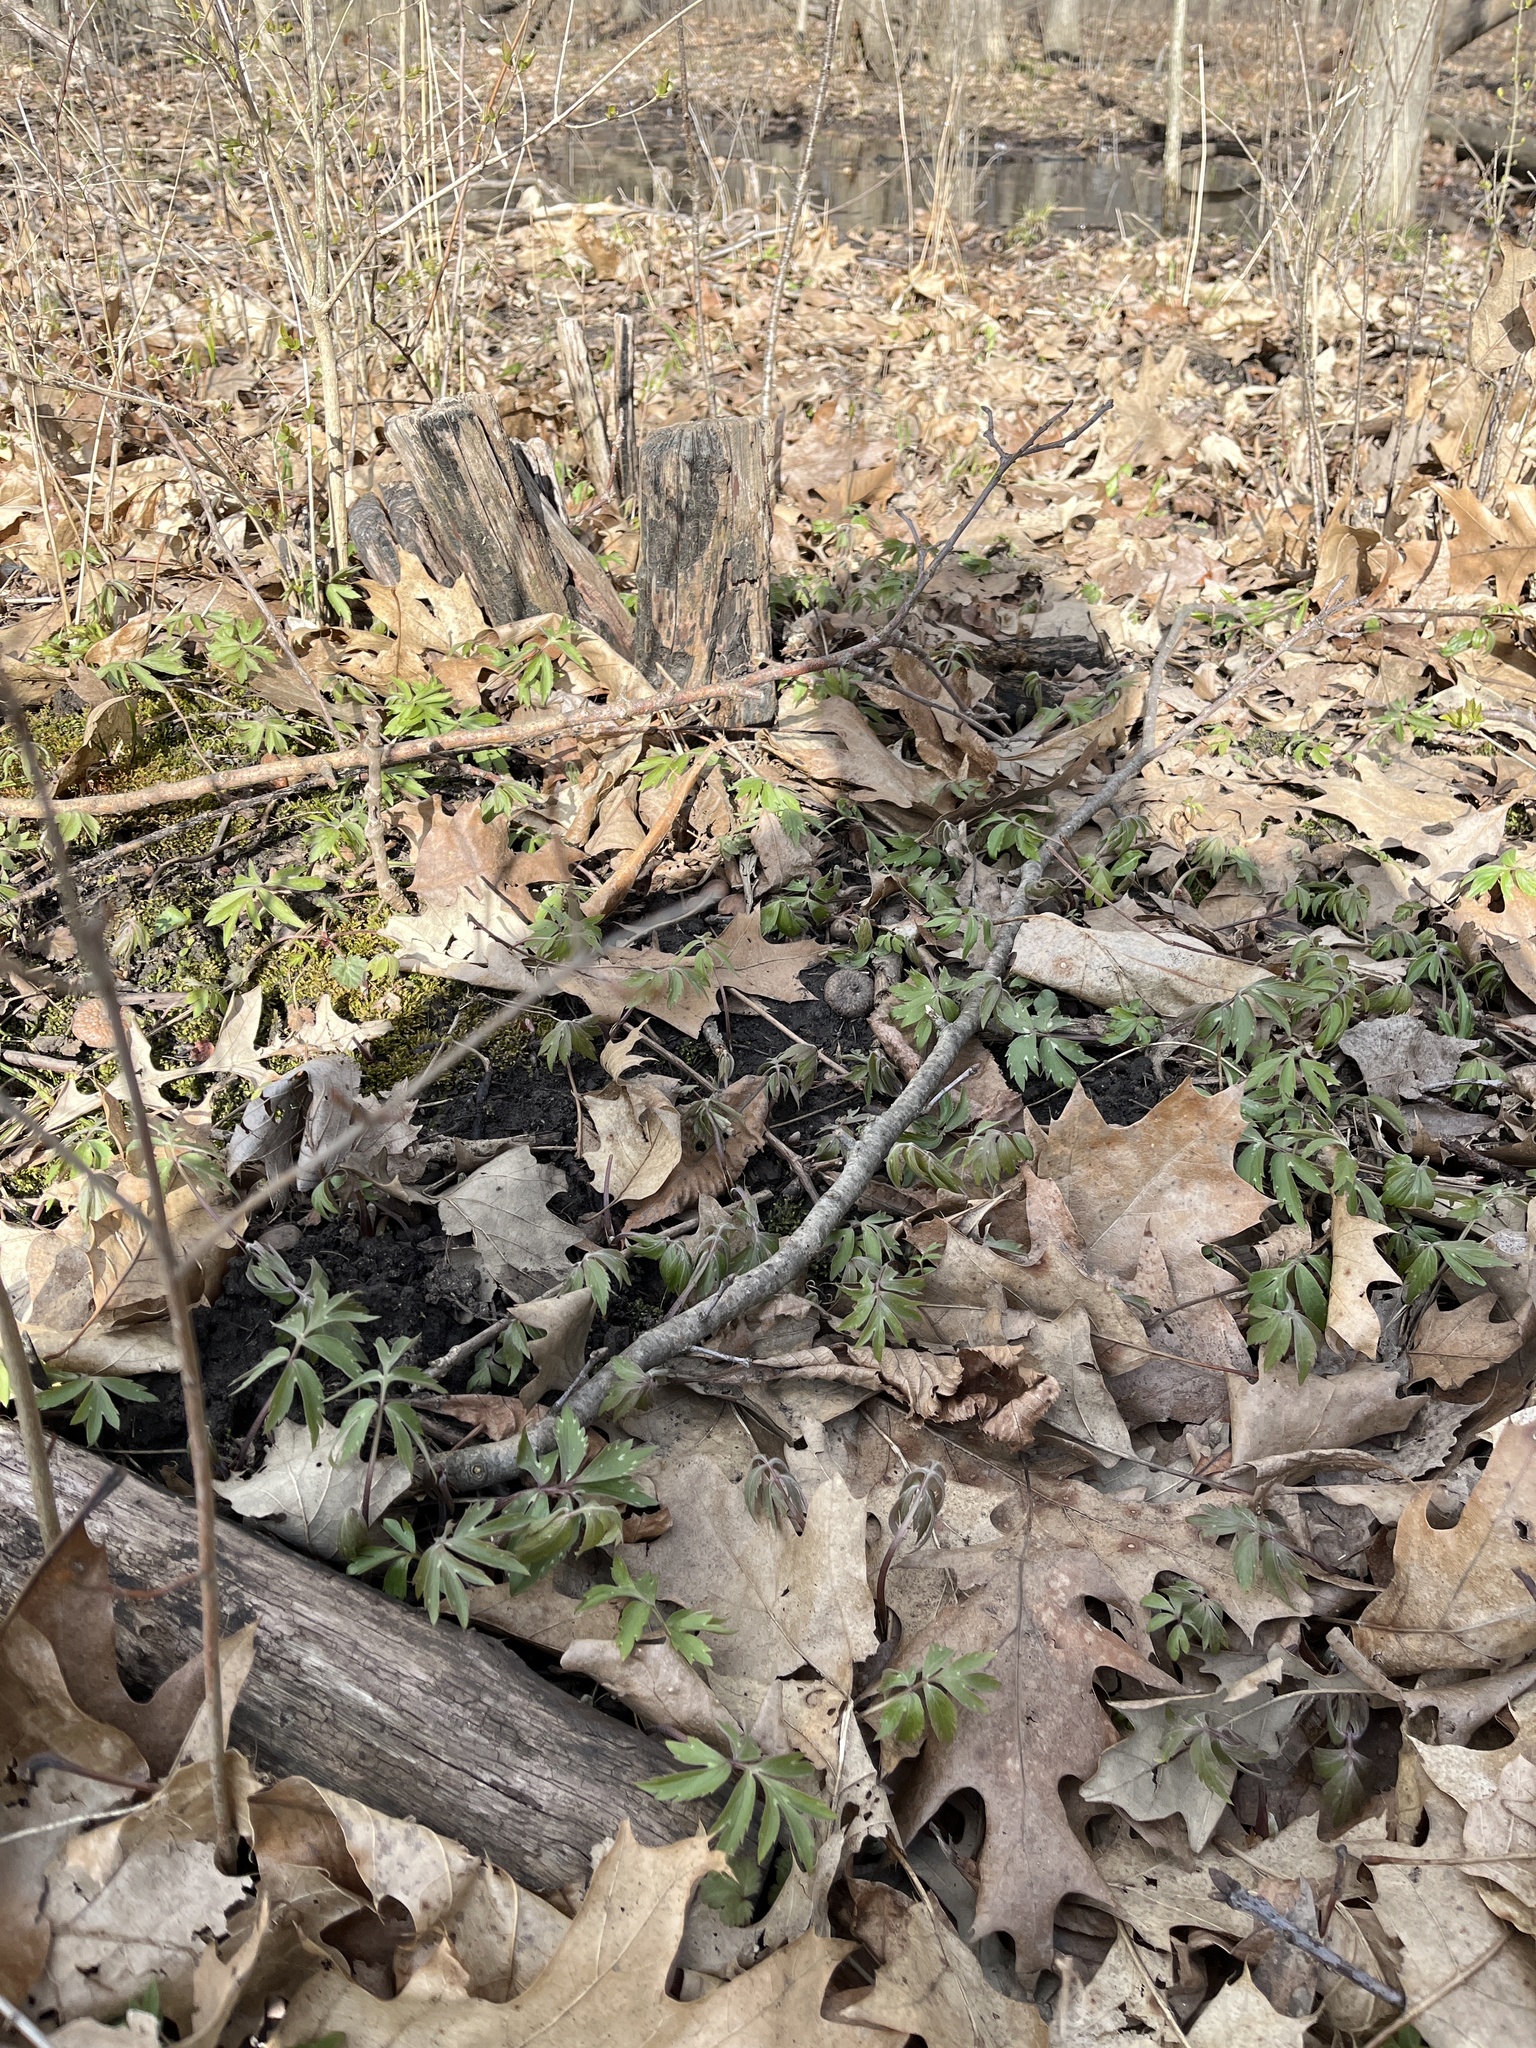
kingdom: Plantae
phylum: Tracheophyta
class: Magnoliopsida
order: Boraginales
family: Hydrophyllaceae
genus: Hydrophyllum
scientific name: Hydrophyllum virginianum
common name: Virginia waterleaf
